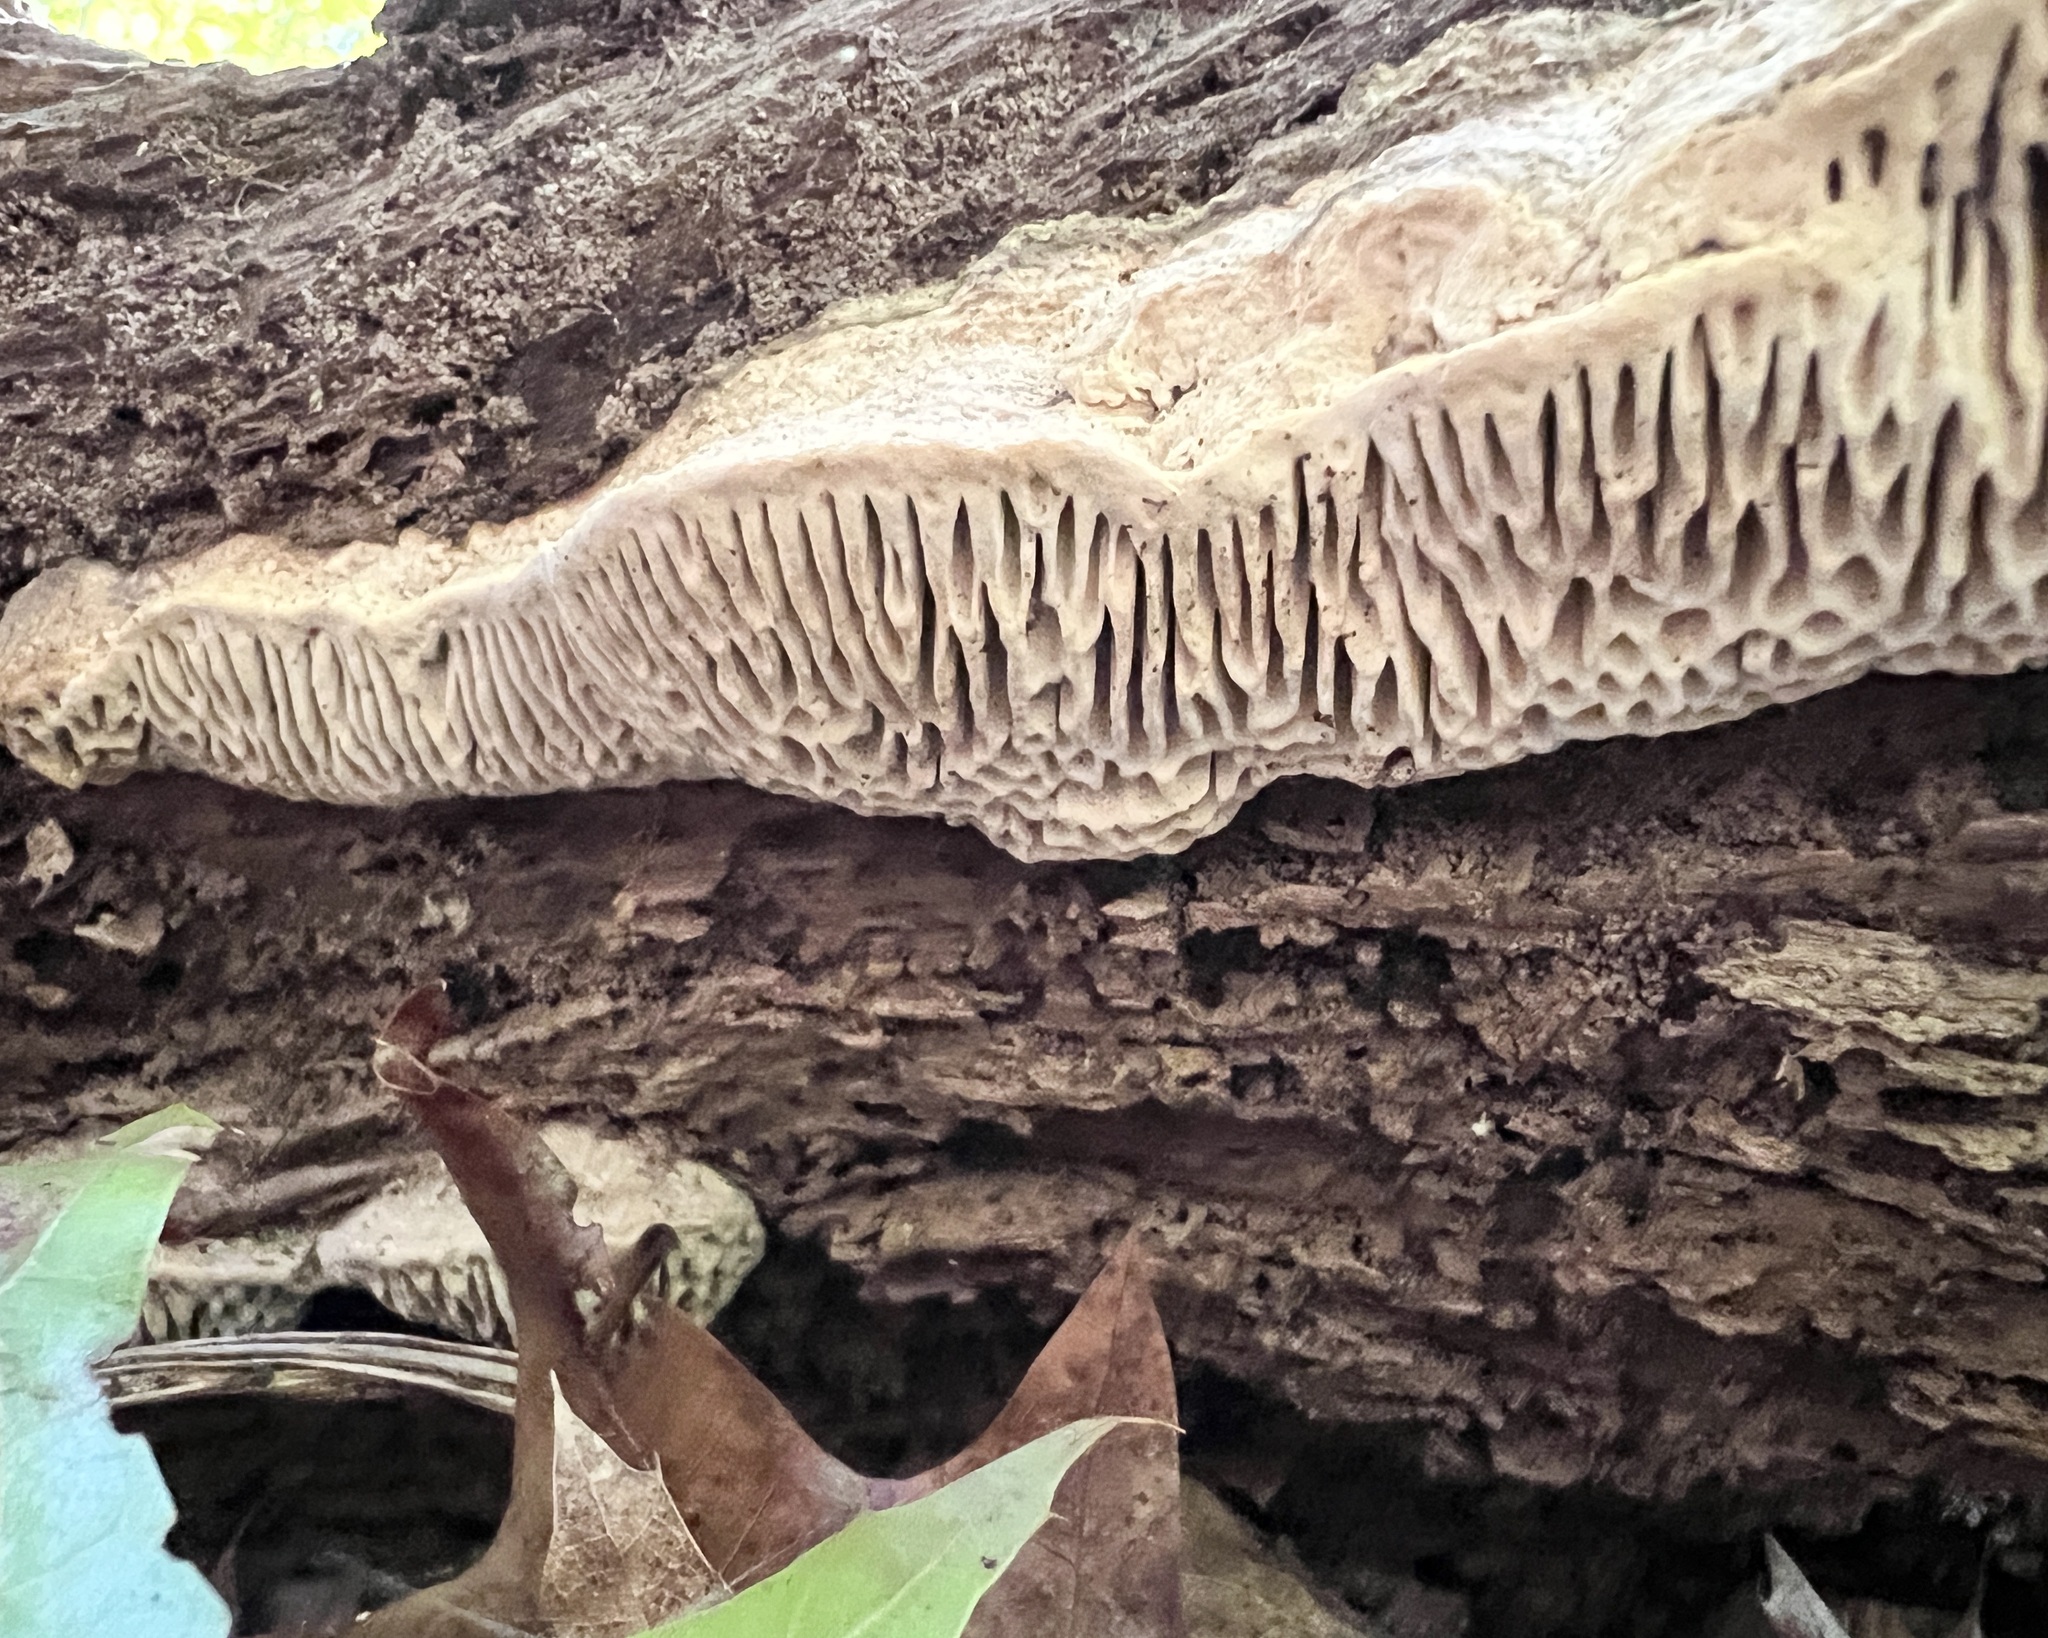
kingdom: Fungi
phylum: Basidiomycota
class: Agaricomycetes
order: Polyporales
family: Fomitopsidaceae
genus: Fomitopsis
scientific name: Fomitopsis
